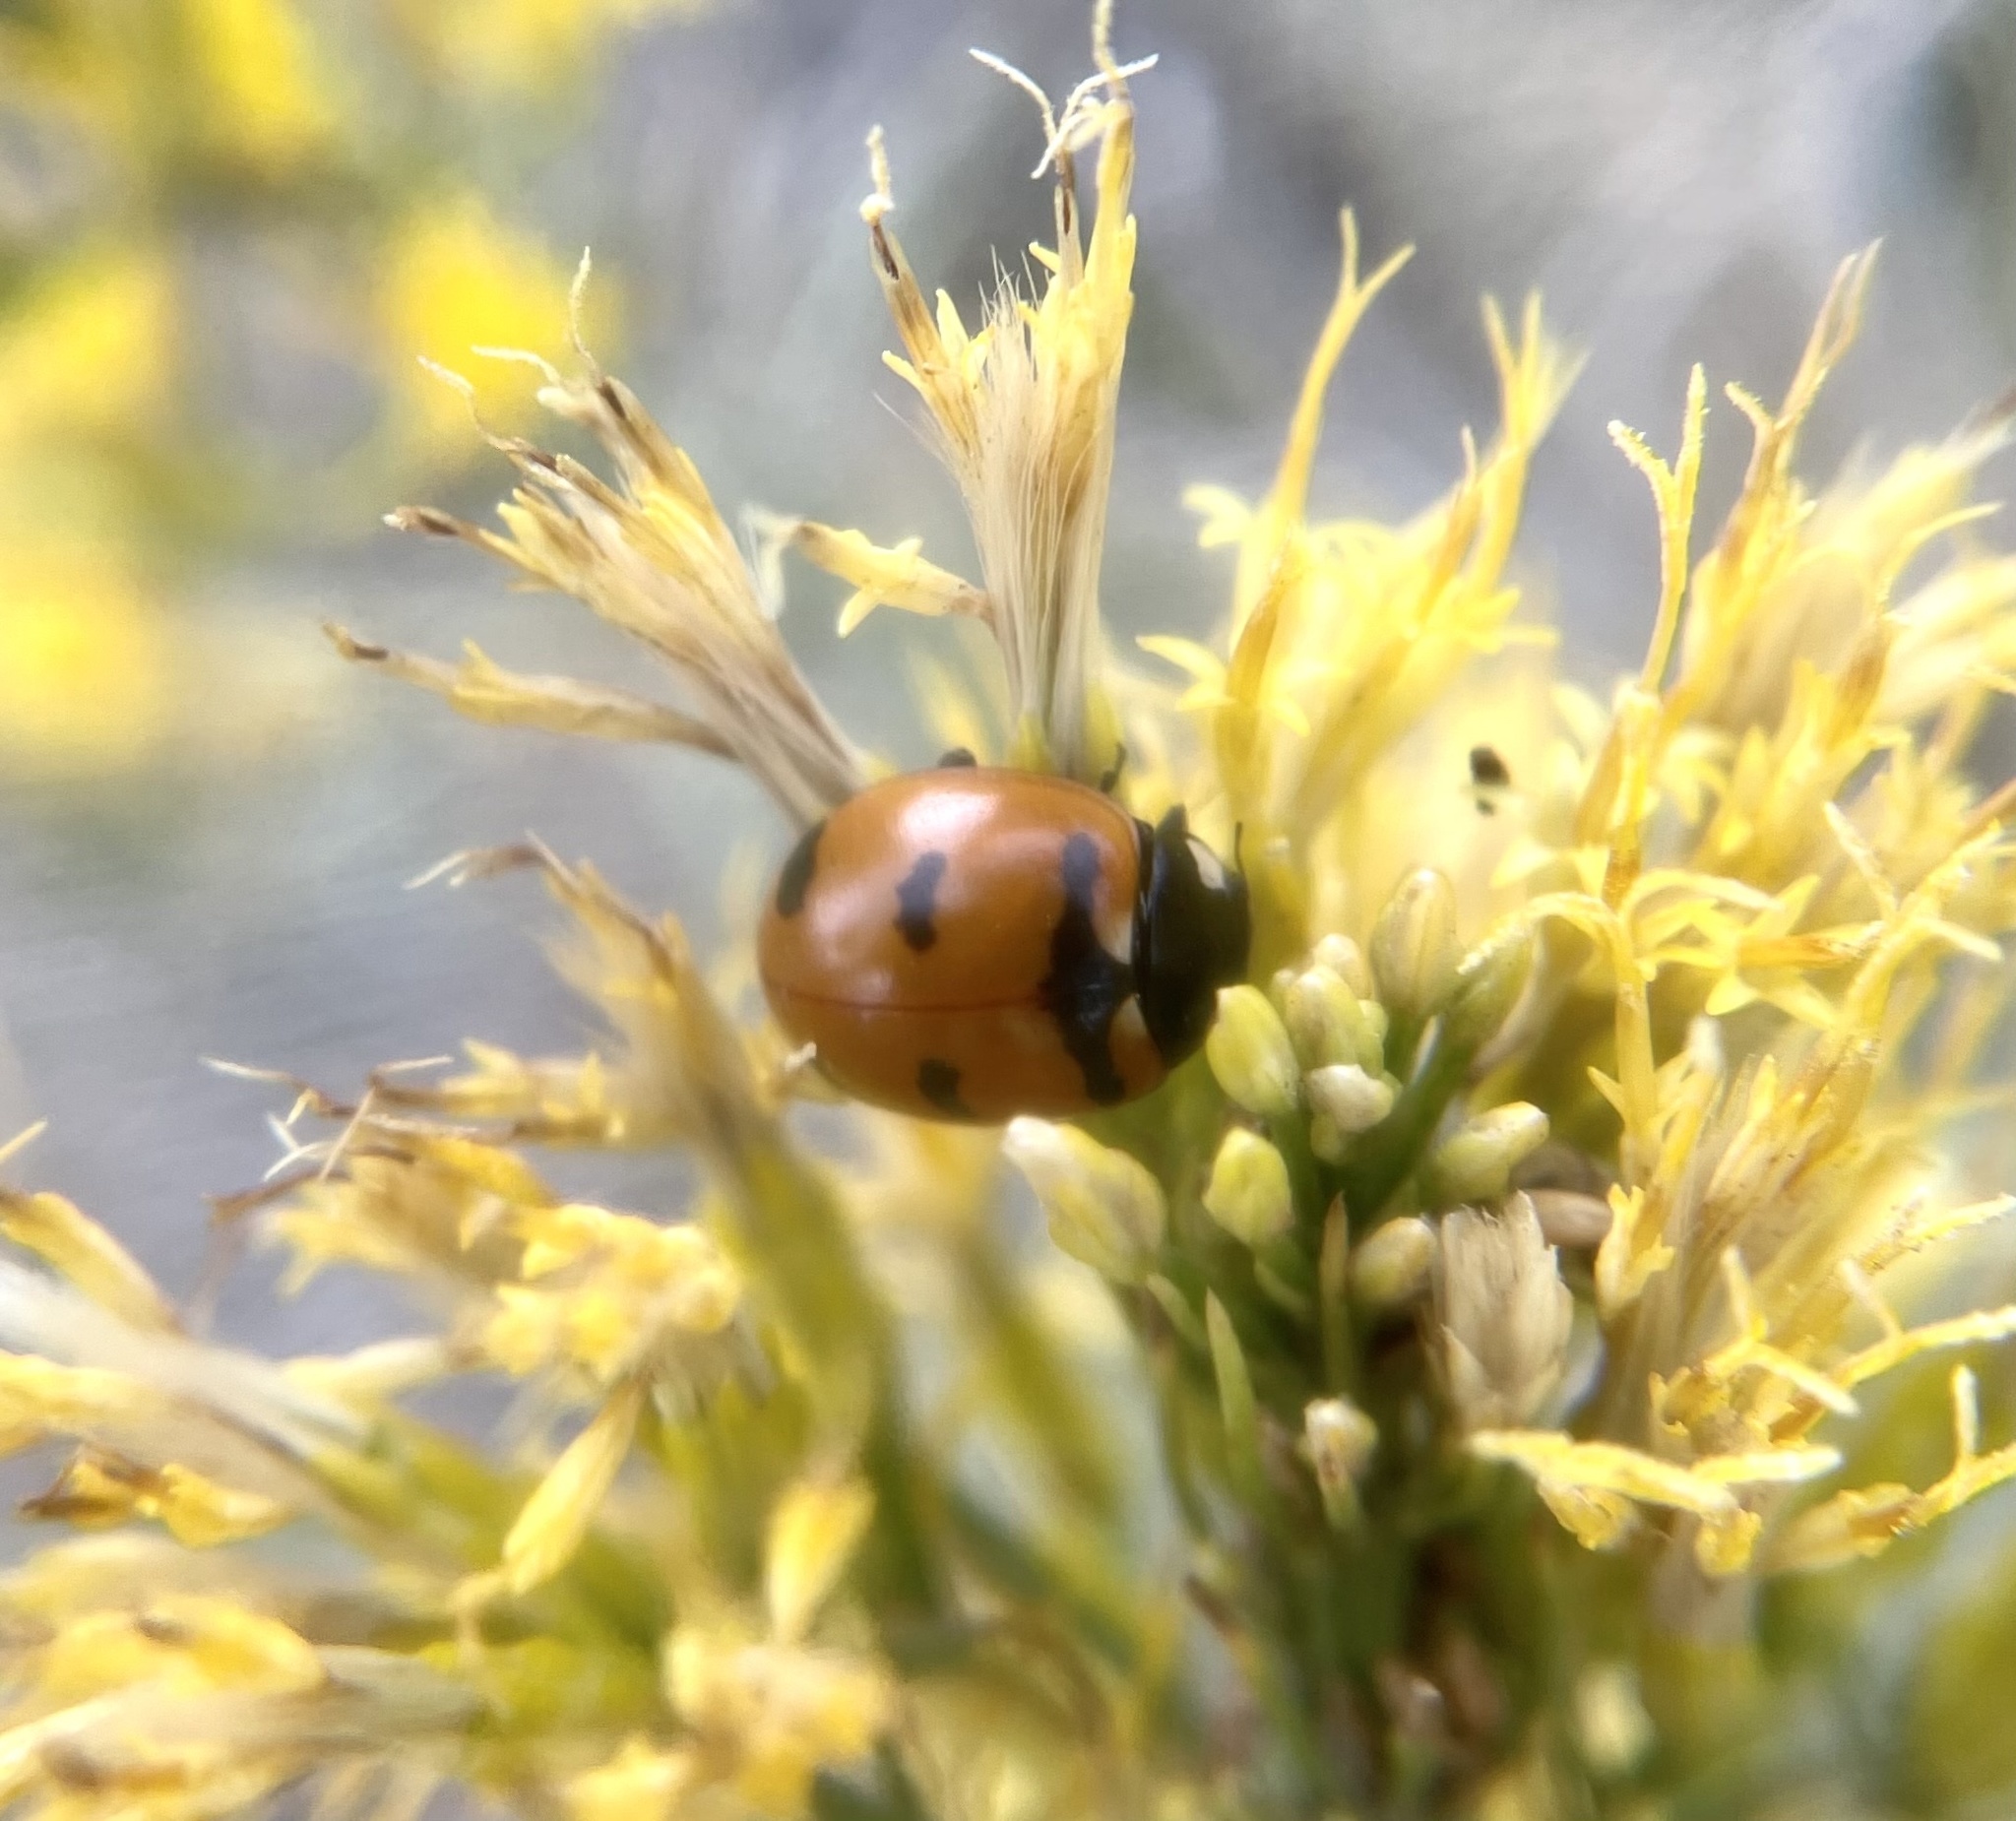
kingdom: Animalia
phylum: Arthropoda
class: Insecta
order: Coleoptera
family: Coccinellidae
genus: Coccinella
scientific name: Coccinella transversoguttata
